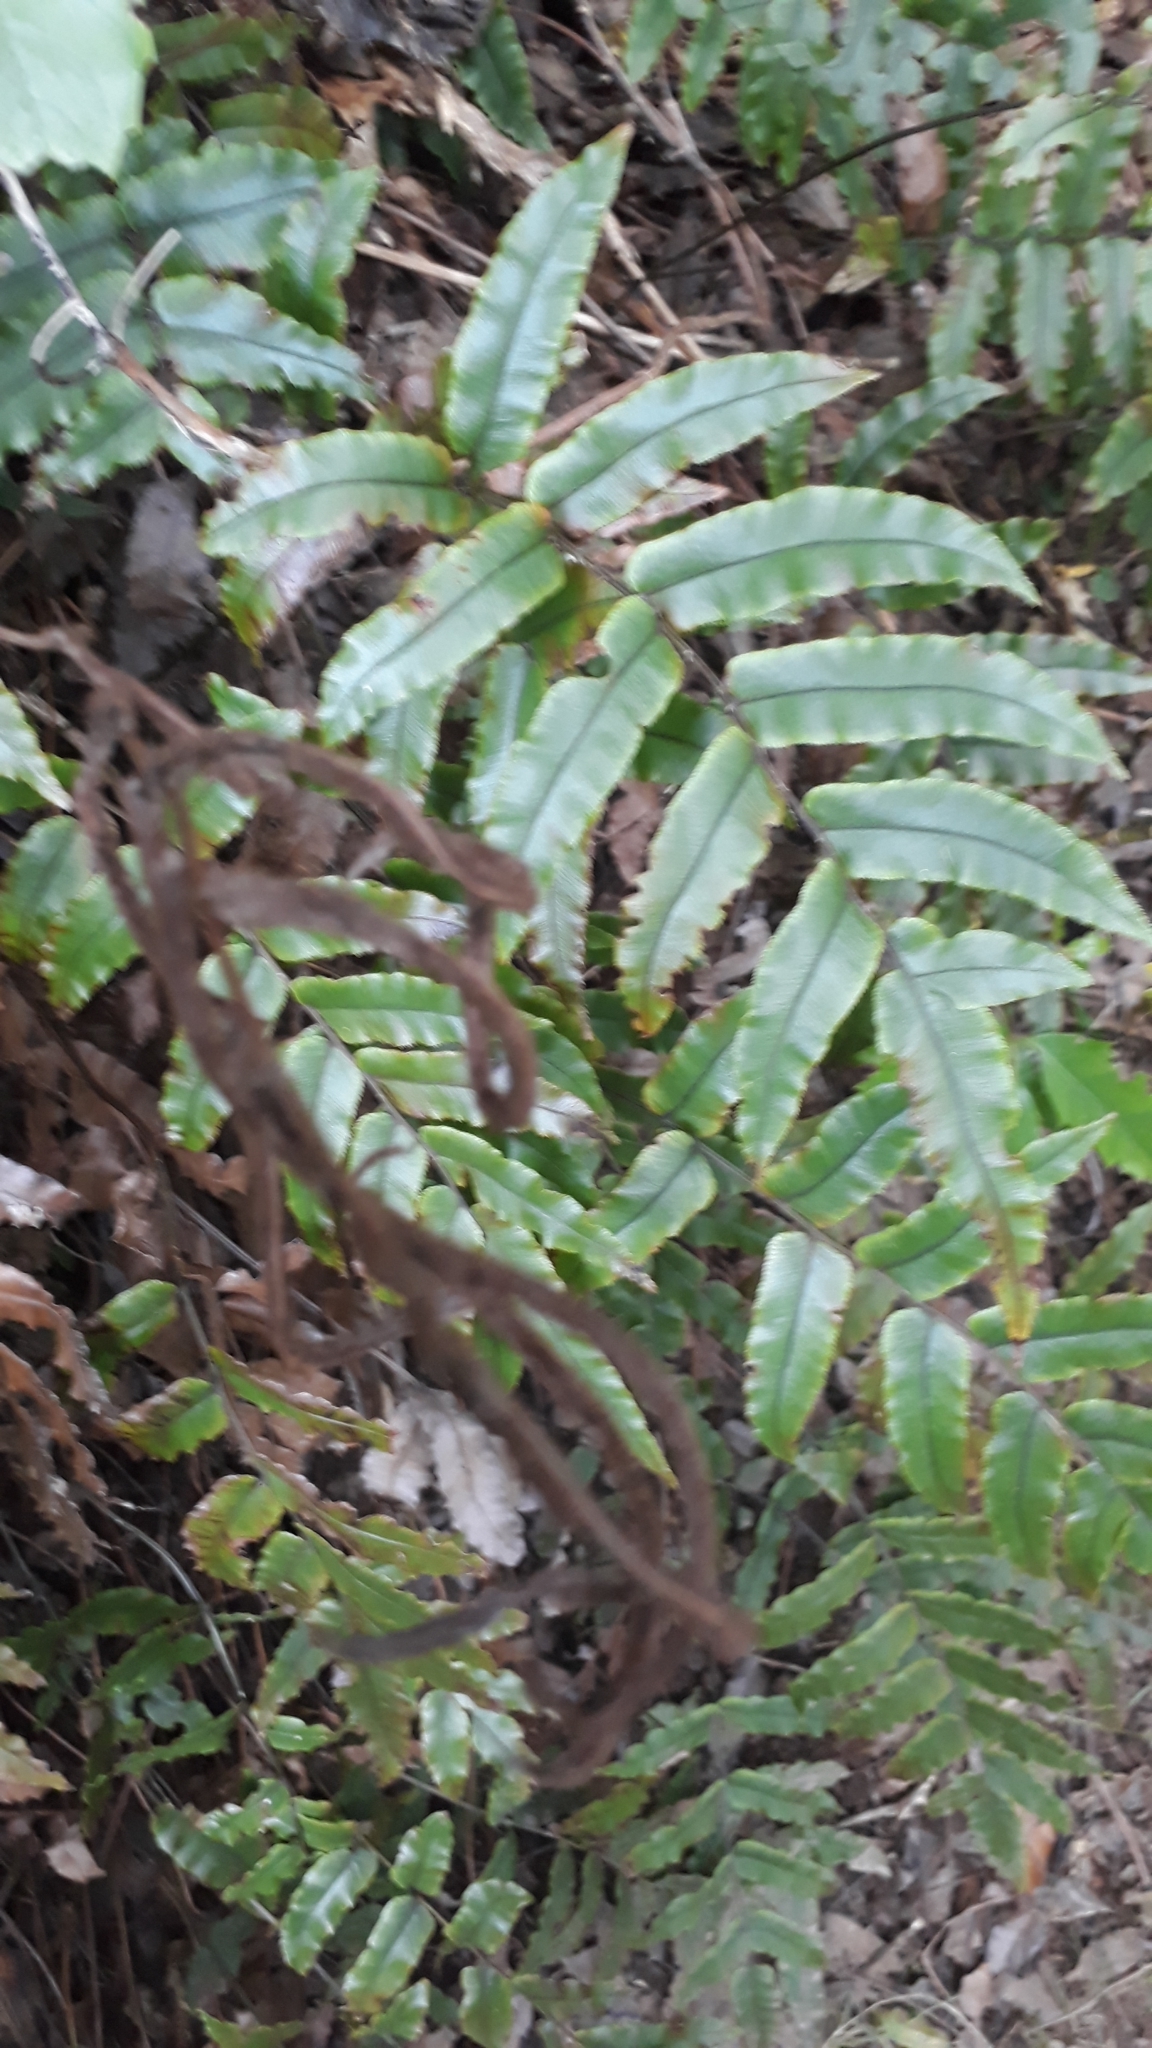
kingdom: Plantae
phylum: Tracheophyta
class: Polypodiopsida
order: Polypodiales
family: Blechnaceae
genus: Parablechnum
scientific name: Parablechnum procerum
